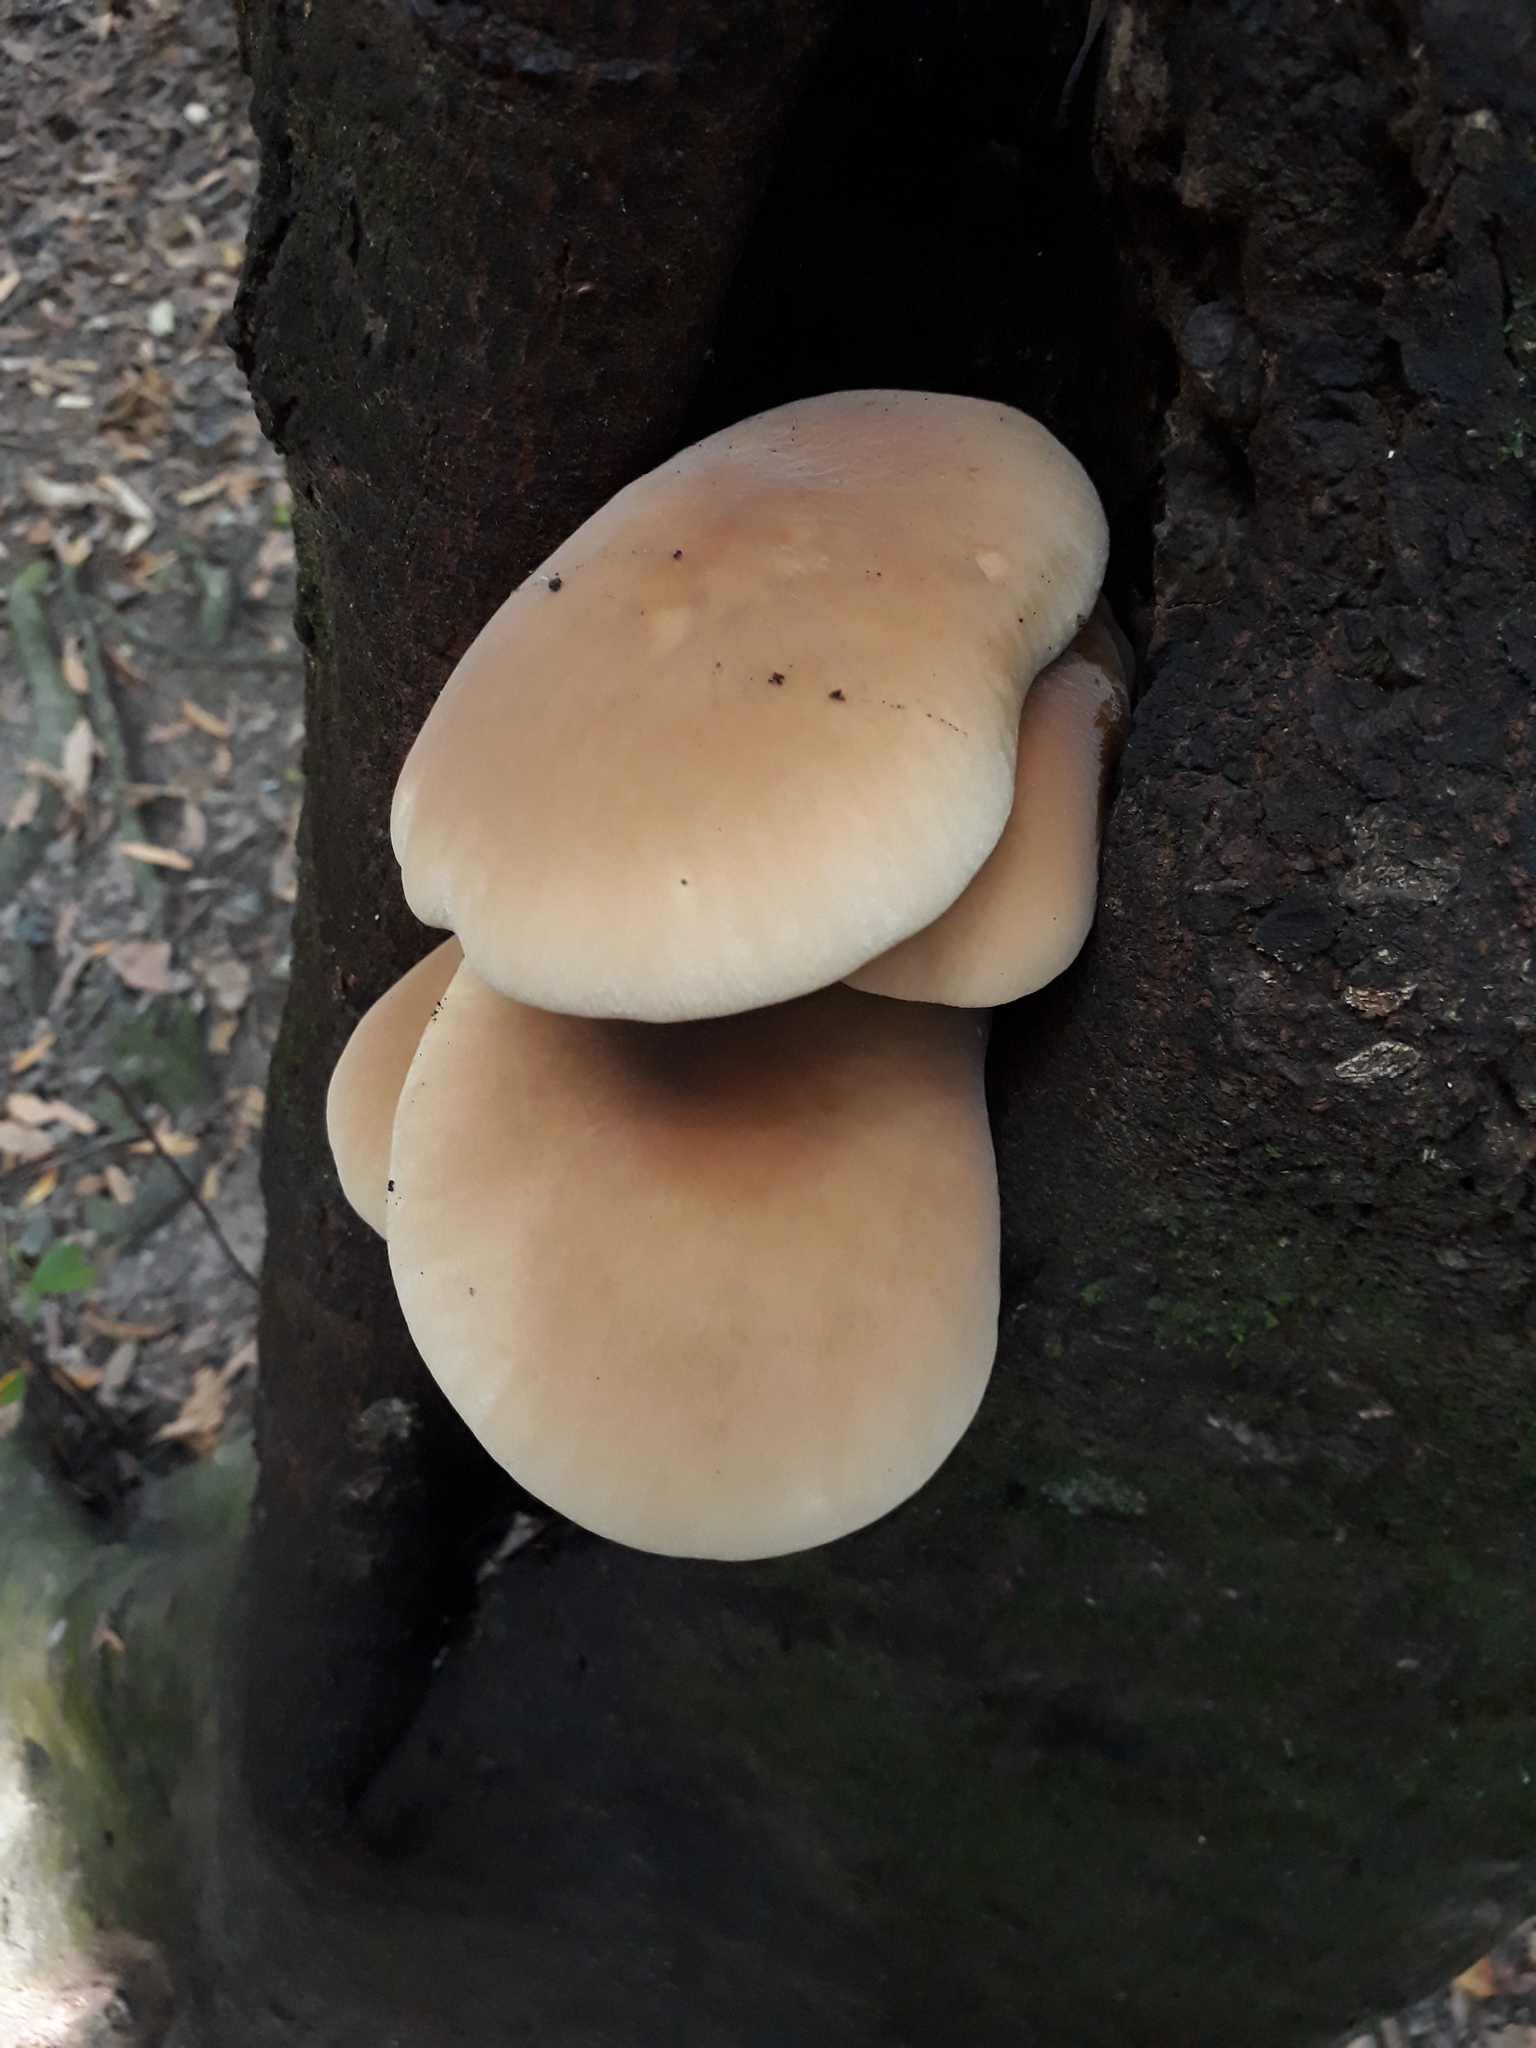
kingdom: Fungi
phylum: Basidiomycota
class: Agaricomycetes
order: Agaricales
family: Tubariaceae
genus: Cyclocybe
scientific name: Cyclocybe parasitica
